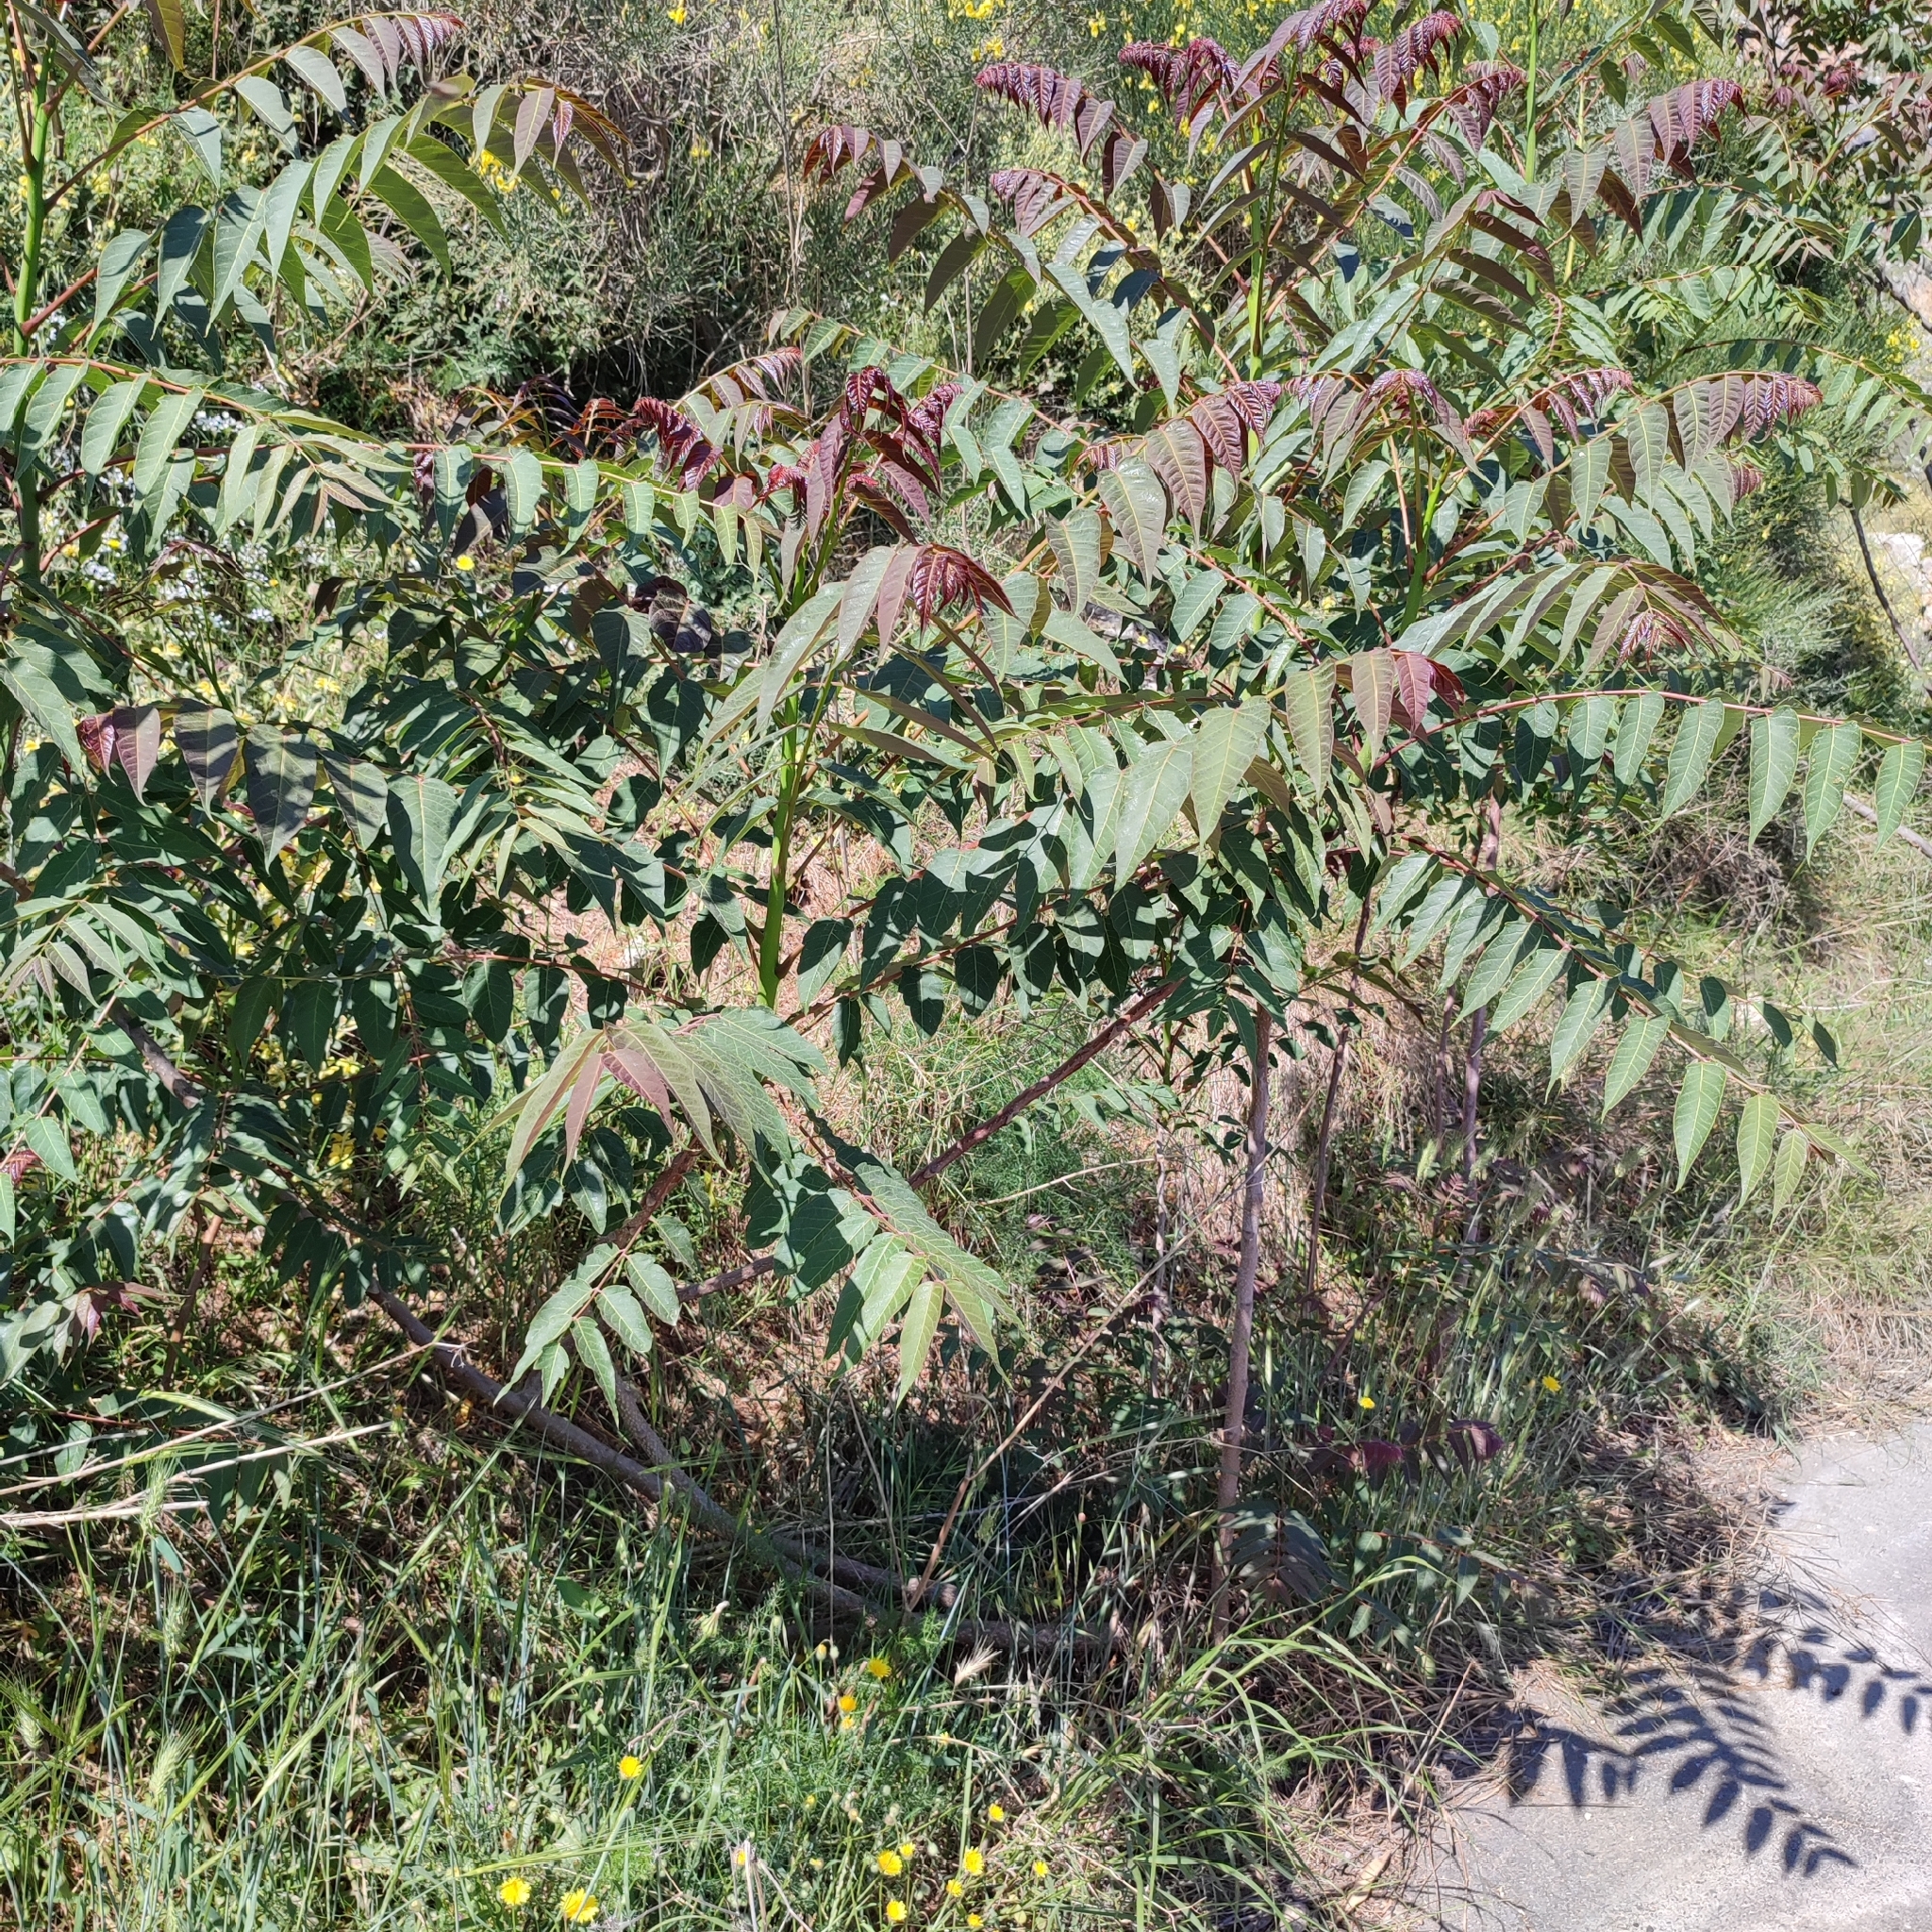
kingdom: Plantae
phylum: Tracheophyta
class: Magnoliopsida
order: Sapindales
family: Simaroubaceae
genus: Ailanthus
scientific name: Ailanthus altissima
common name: Tree-of-heaven
